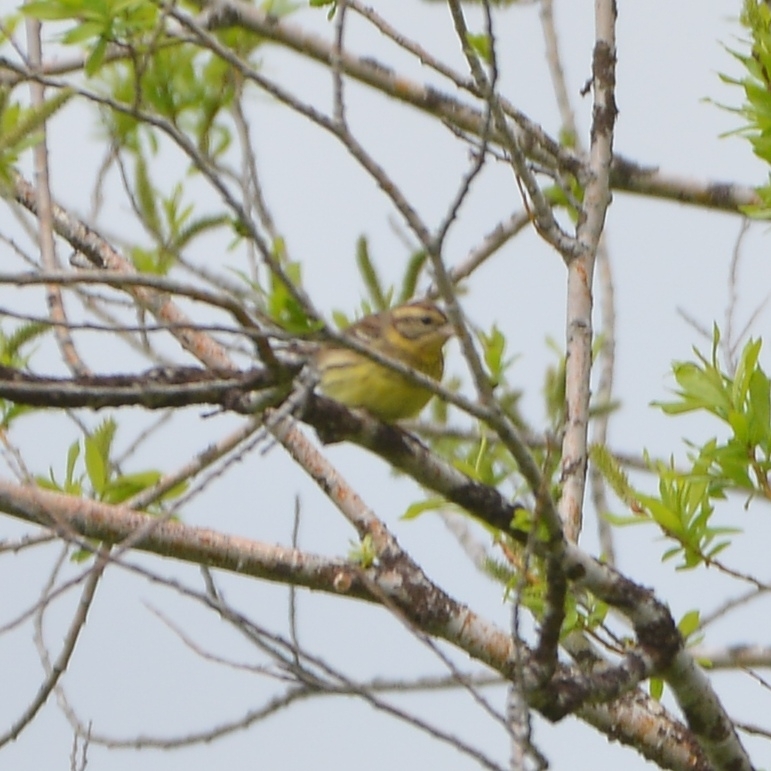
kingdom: Animalia
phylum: Chordata
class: Aves
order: Passeriformes
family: Emberizidae
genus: Emberiza
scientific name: Emberiza aureola
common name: Yellow-breasted bunting
